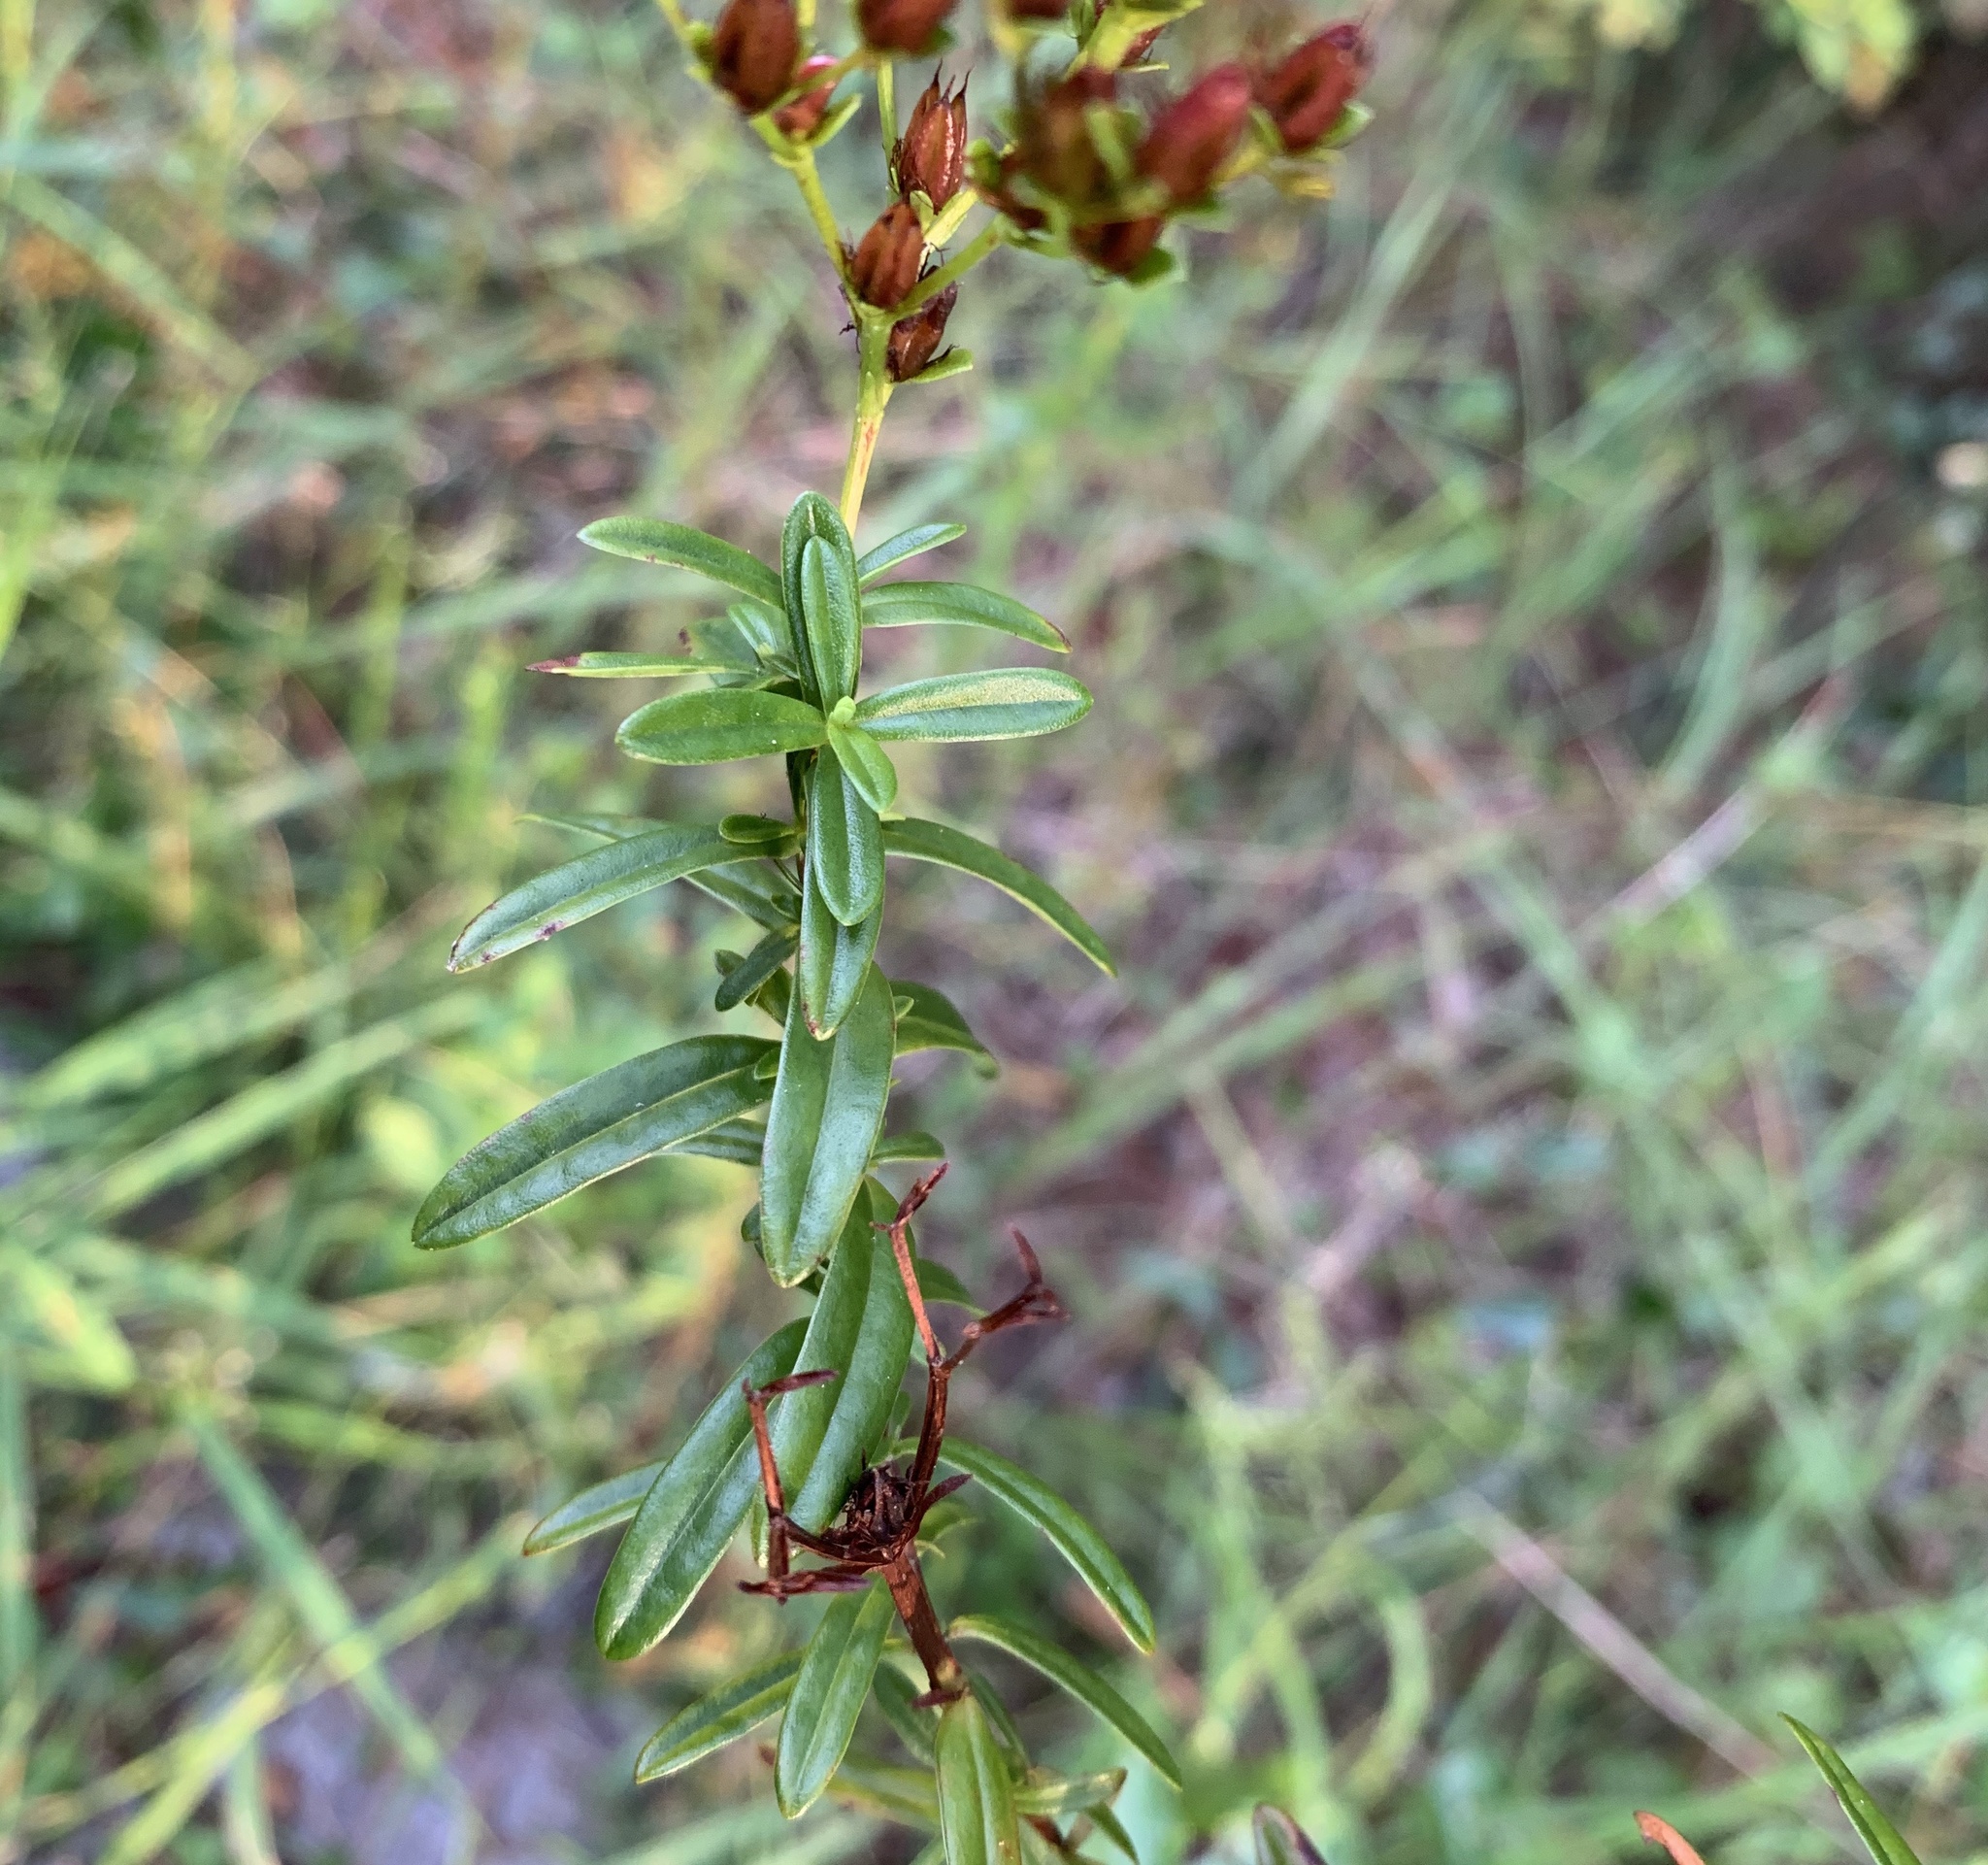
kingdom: Plantae
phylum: Tracheophyta
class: Magnoliopsida
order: Malpighiales
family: Hypericaceae
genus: Hypericum
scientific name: Hypericum cistifolium
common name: Round-pod st. john's-wort
